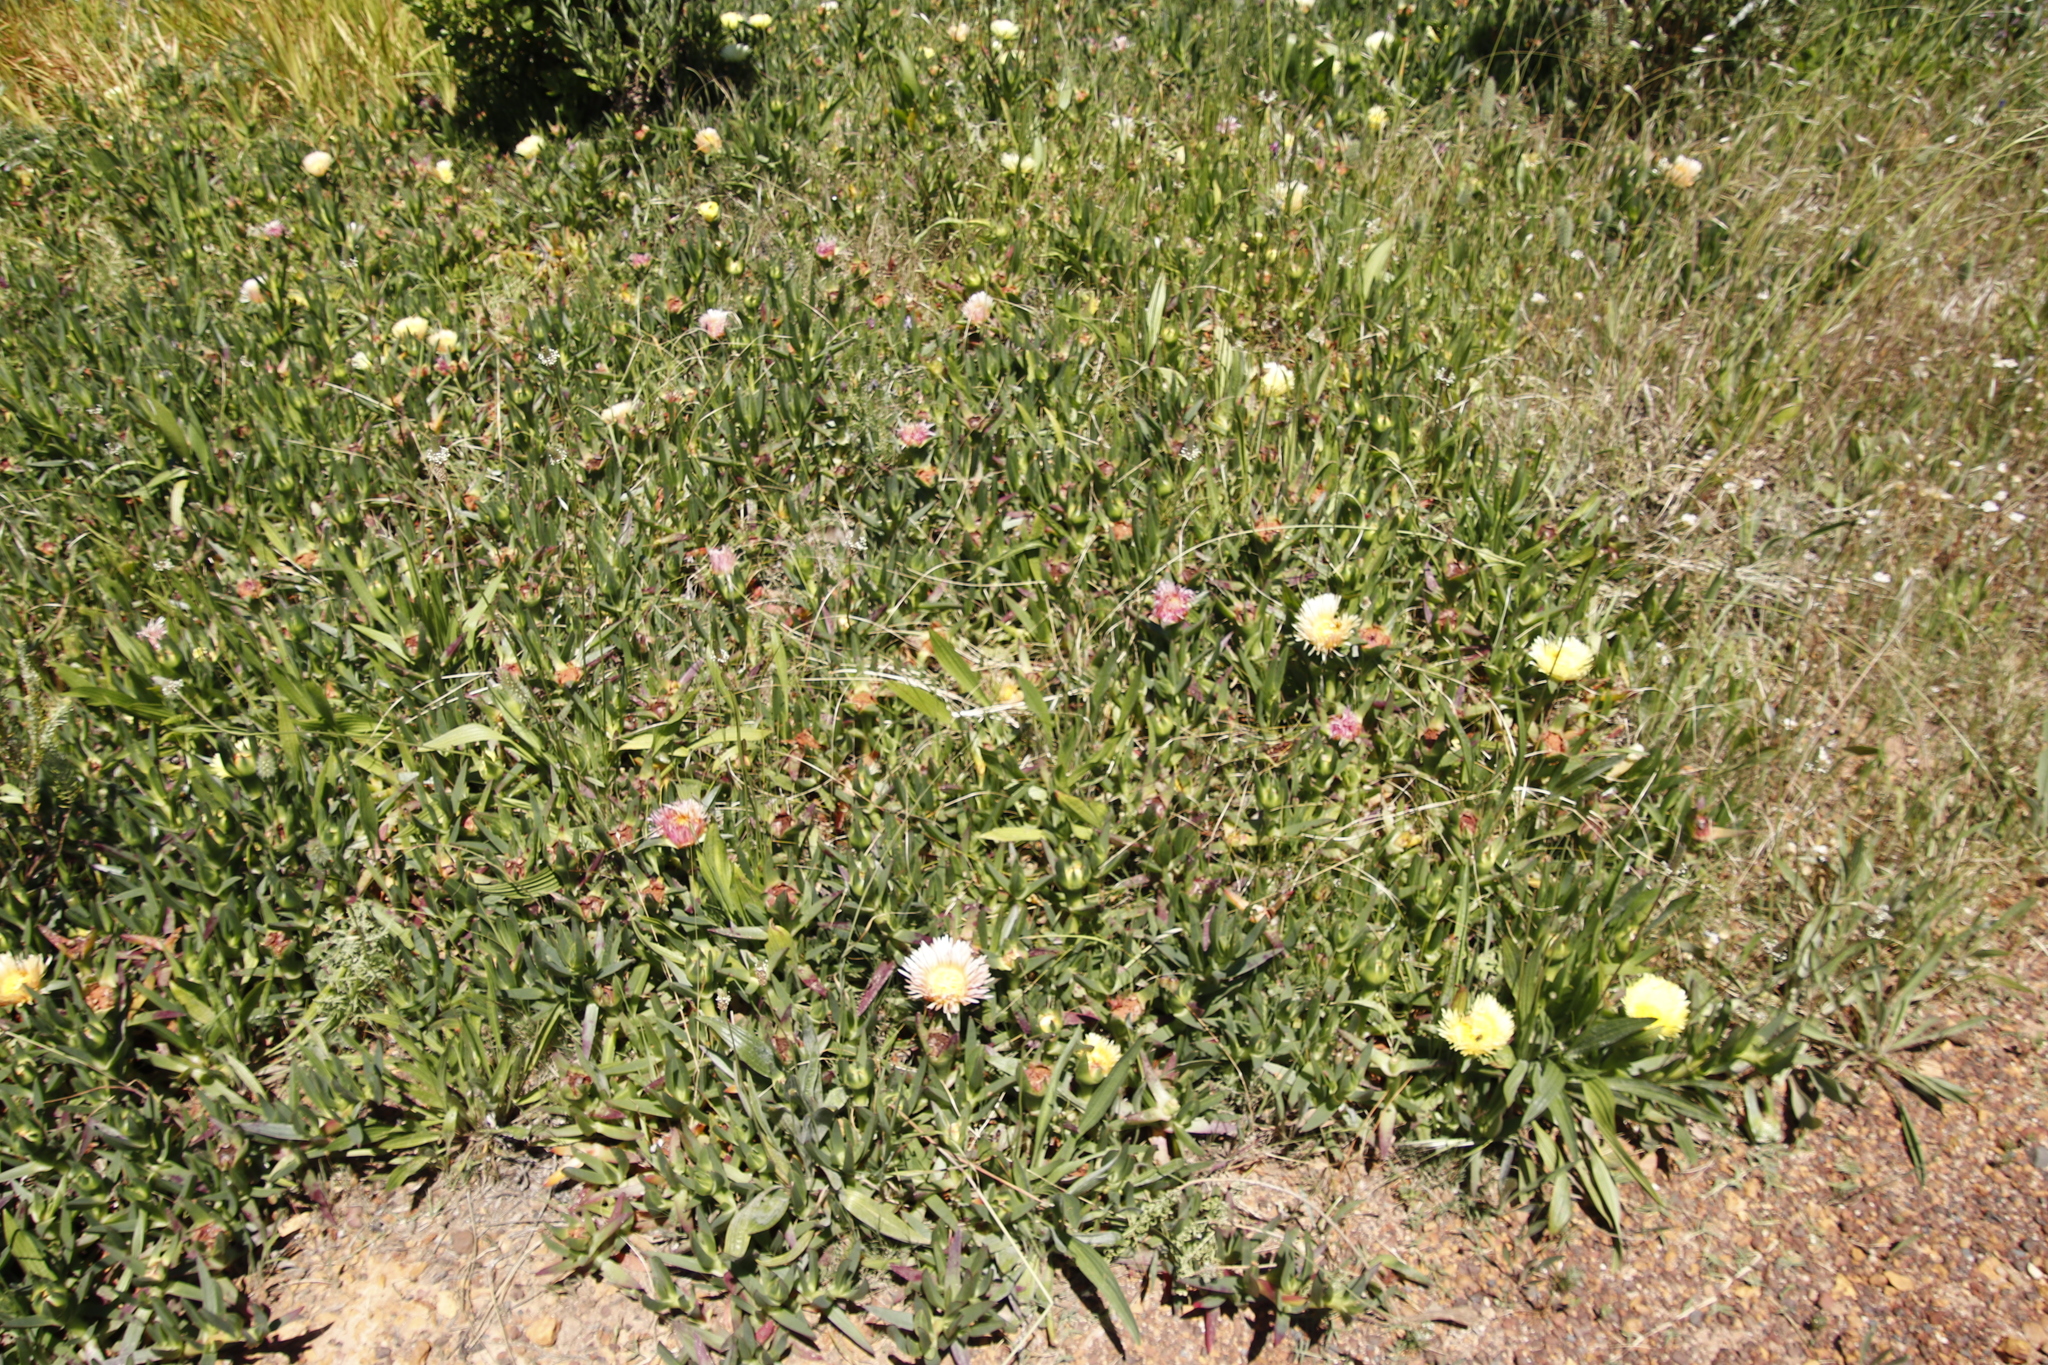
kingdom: Plantae
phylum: Tracheophyta
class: Magnoliopsida
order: Caryophyllales
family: Aizoaceae
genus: Carpobrotus
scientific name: Carpobrotus edulis
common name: Hottentot-fig
